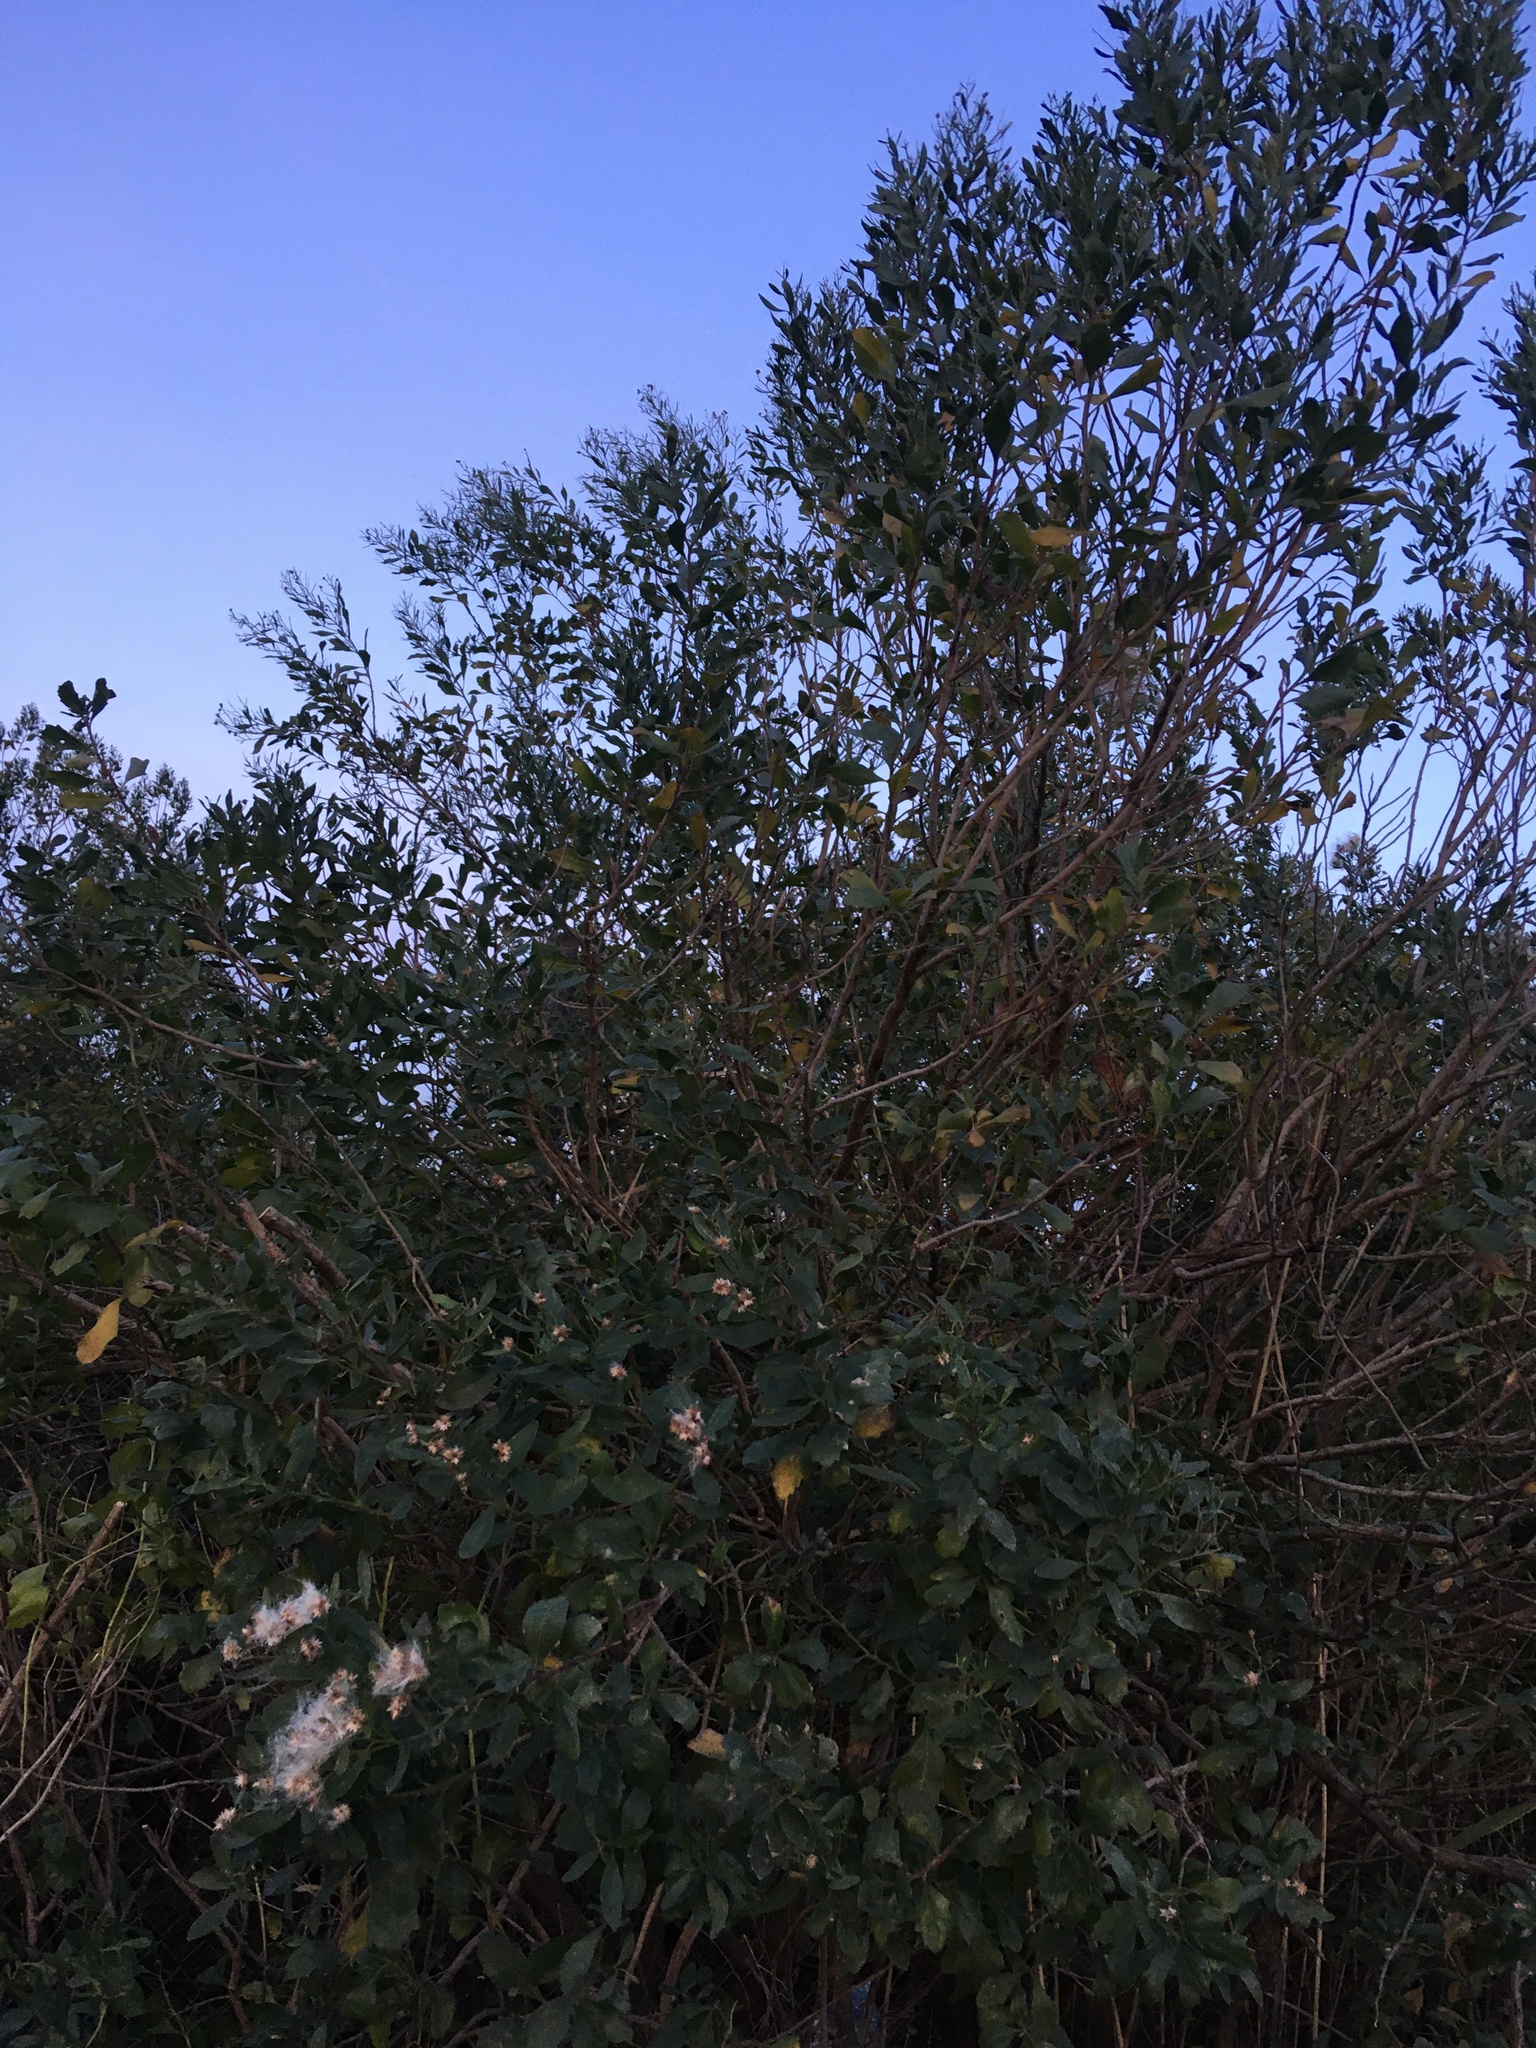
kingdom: Plantae
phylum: Tracheophyta
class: Magnoliopsida
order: Asterales
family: Asteraceae
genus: Baccharis
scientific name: Baccharis halimifolia
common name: Eastern baccharis
